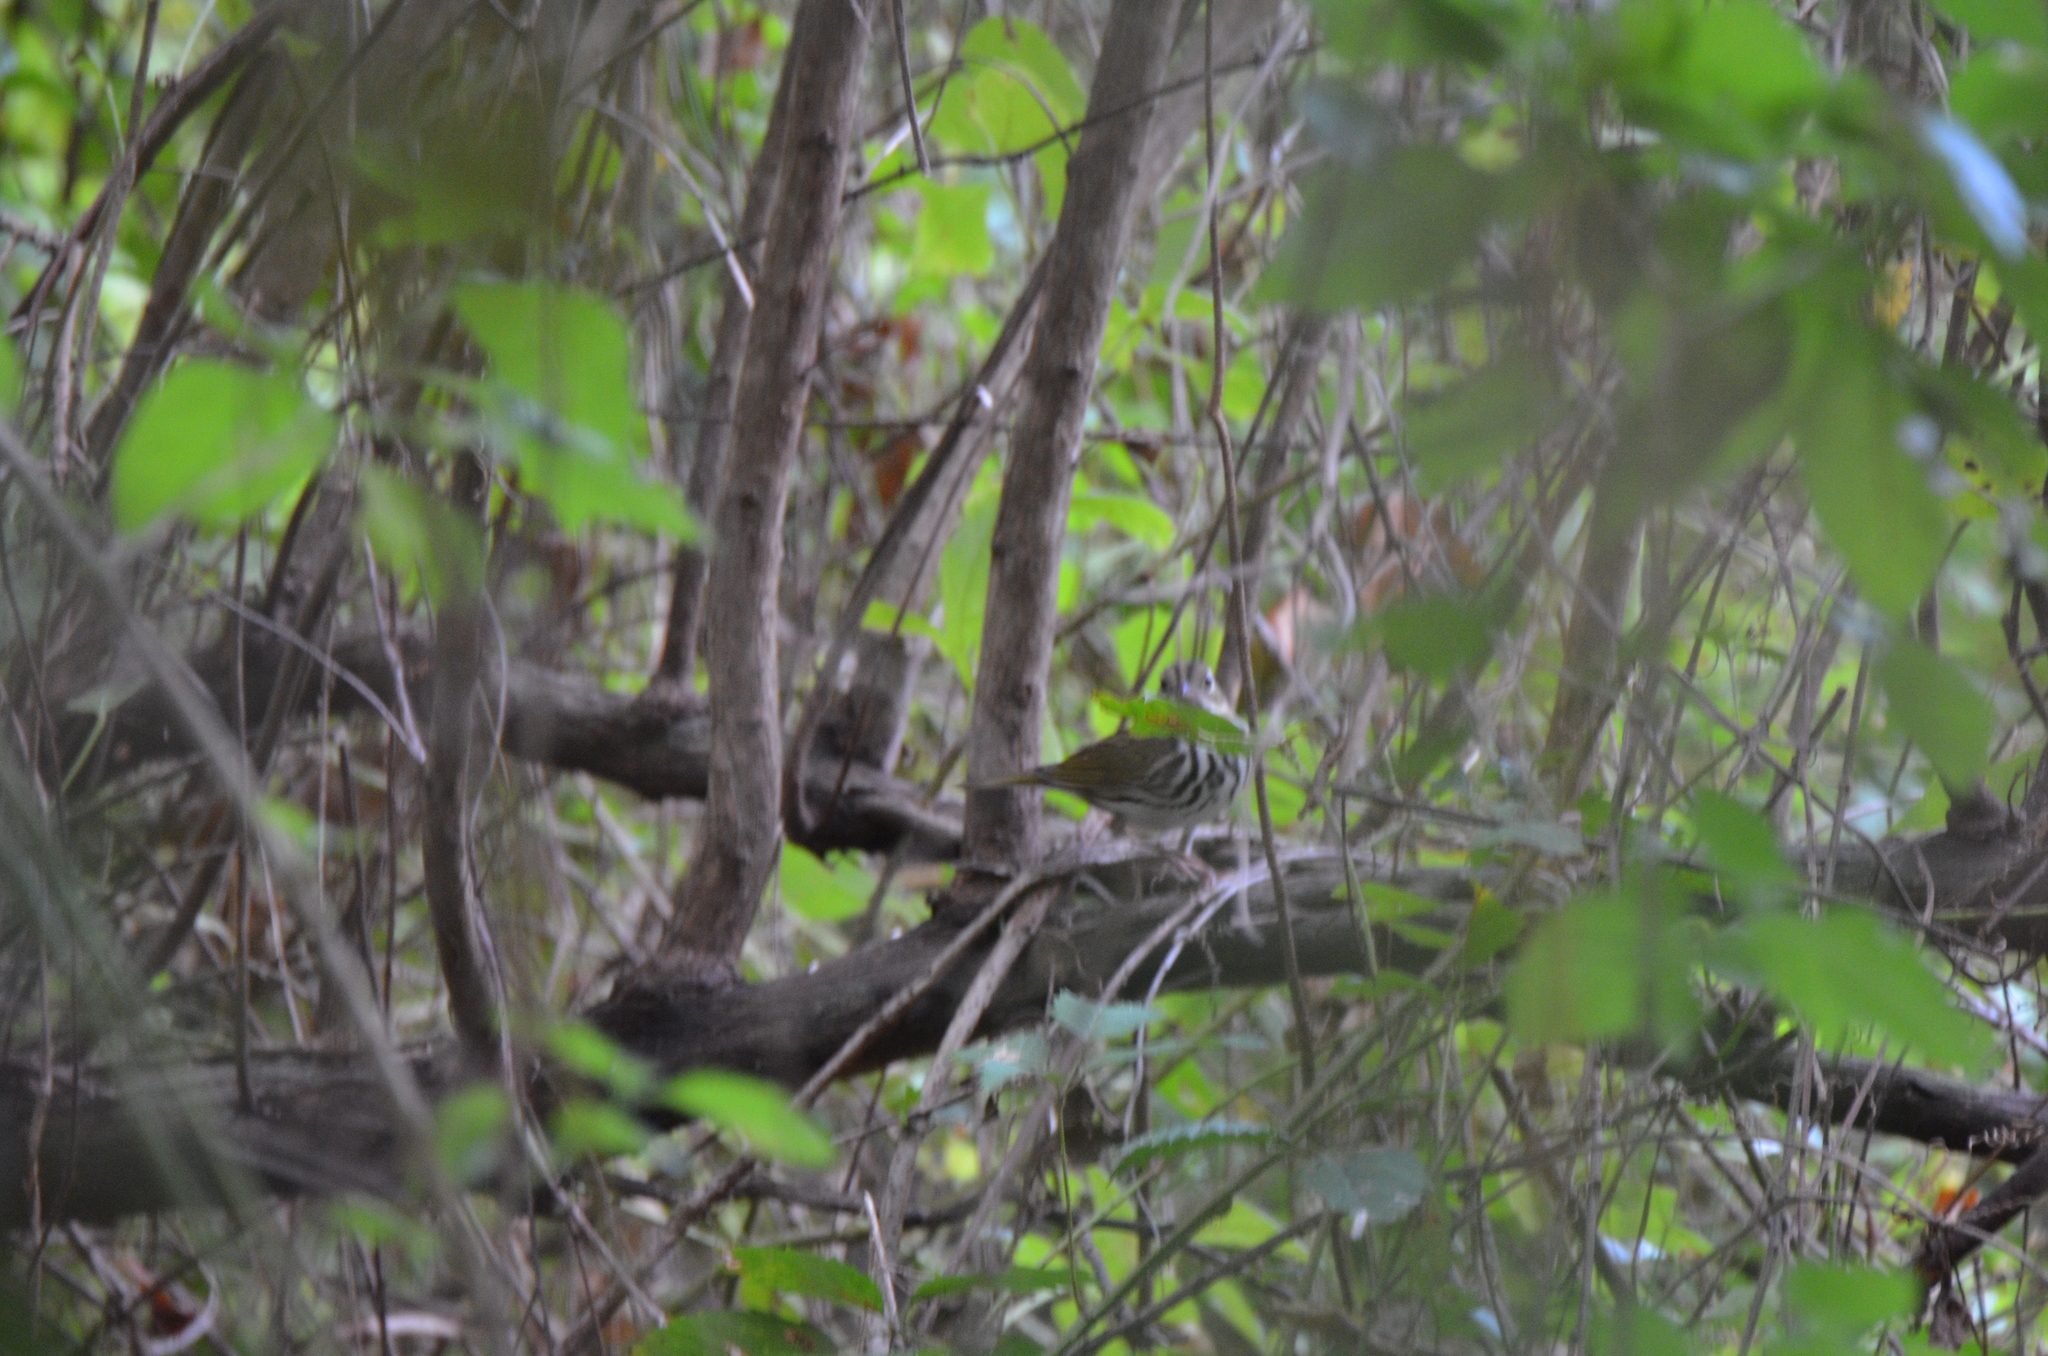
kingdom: Animalia
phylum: Chordata
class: Aves
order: Passeriformes
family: Parulidae
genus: Seiurus
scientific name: Seiurus aurocapilla
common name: Ovenbird
